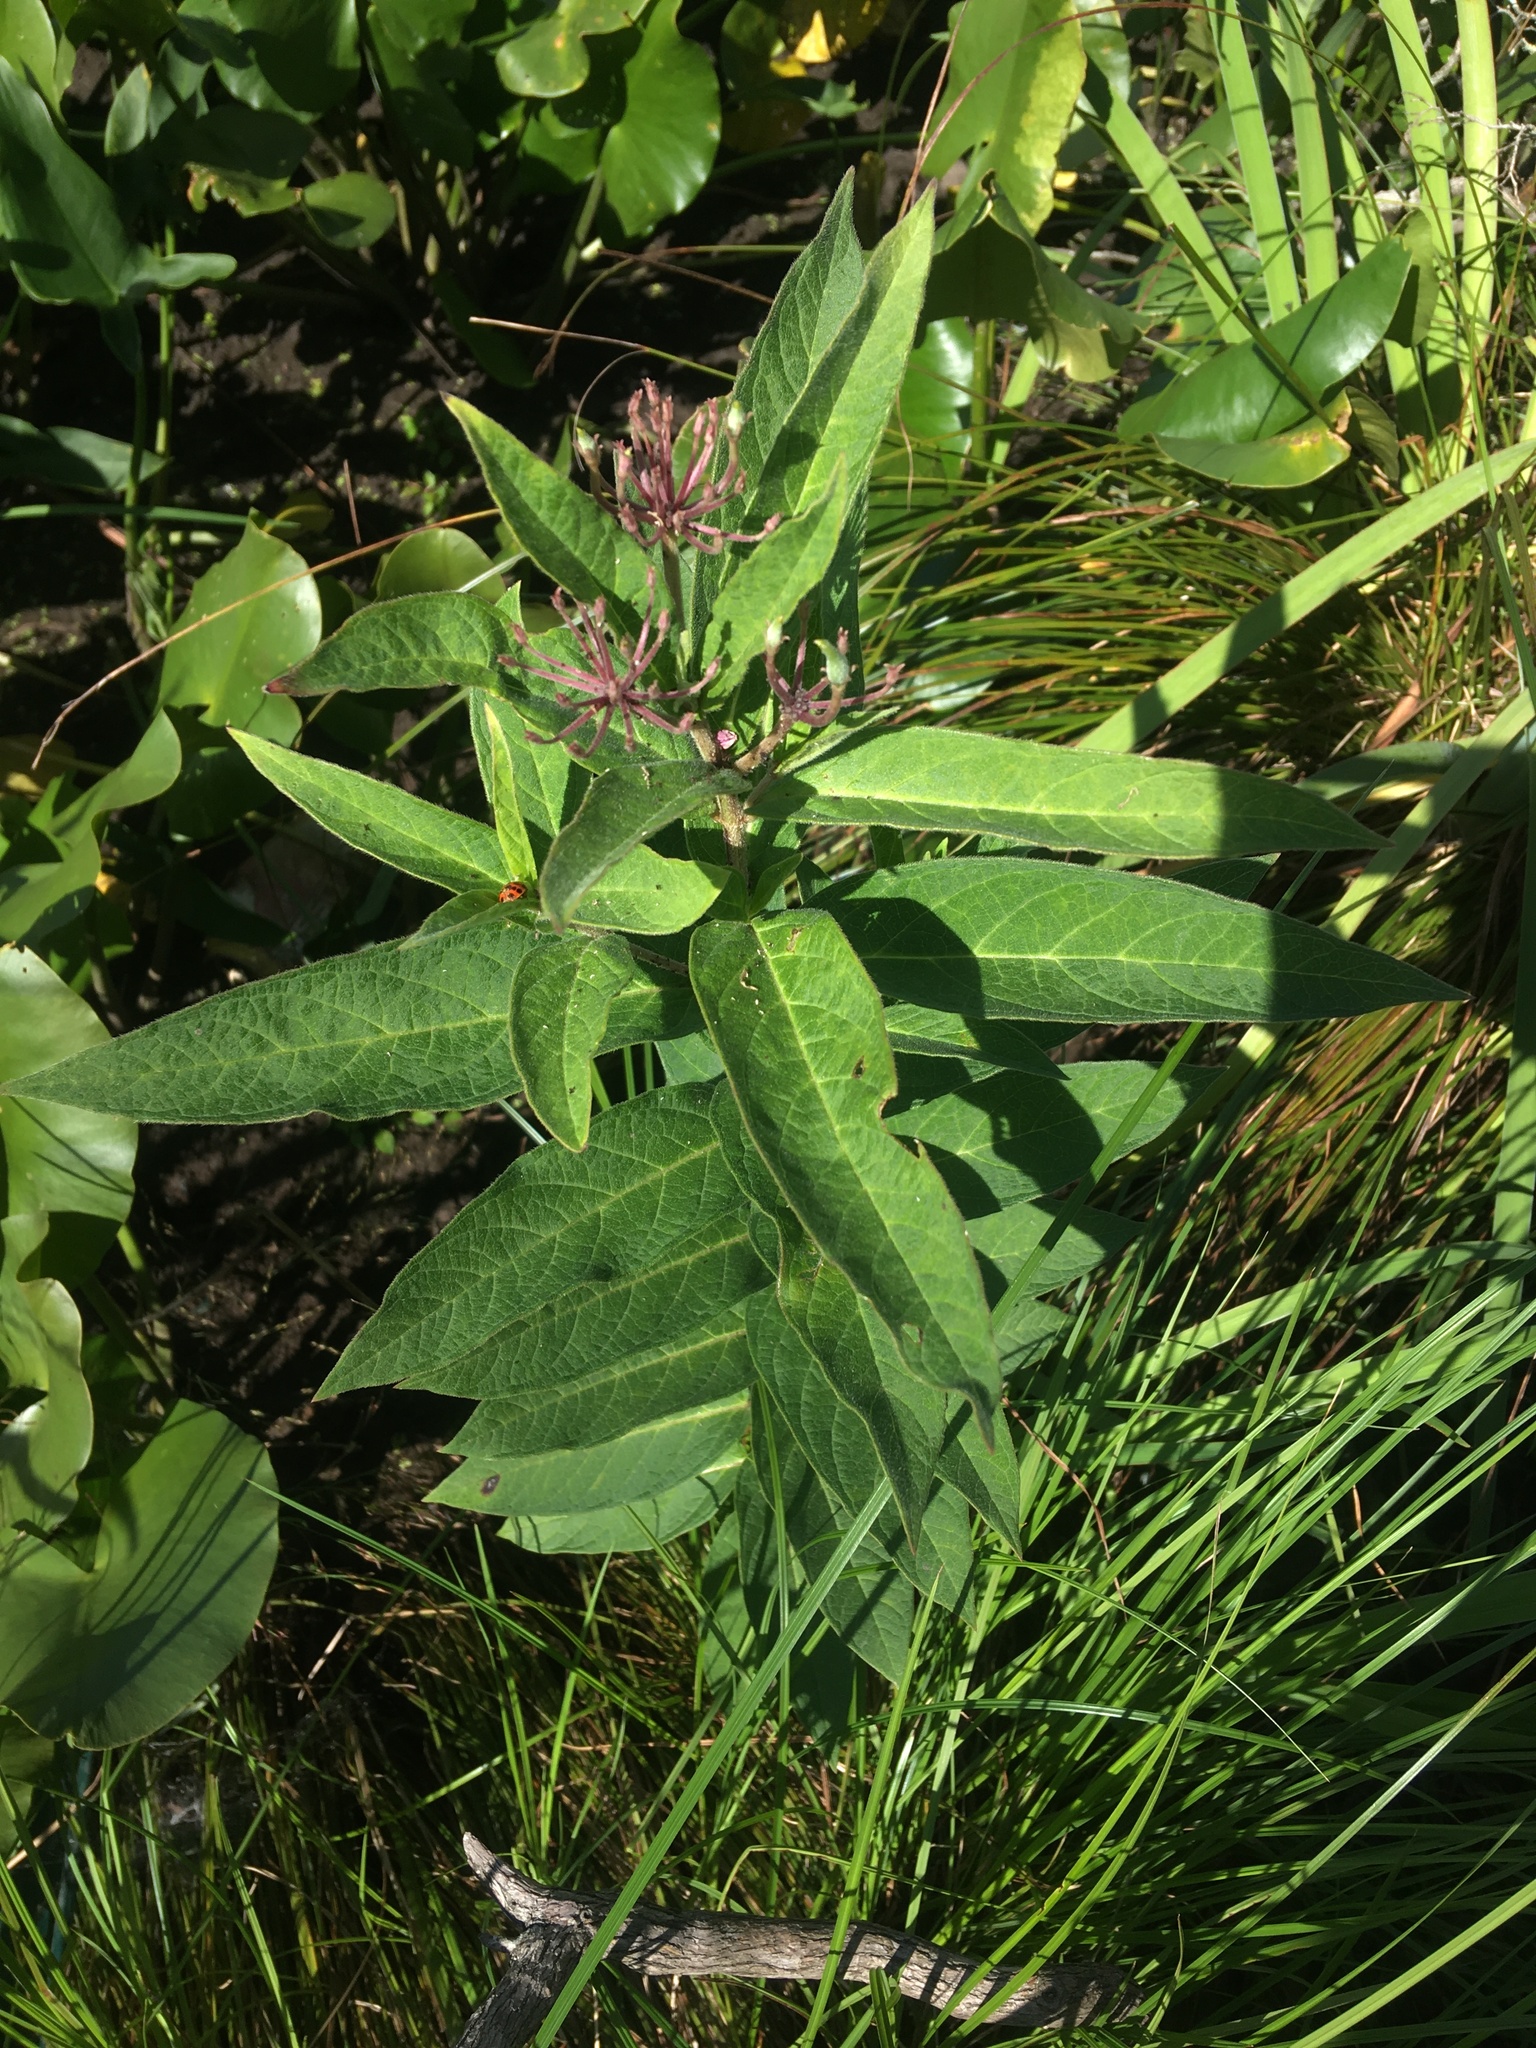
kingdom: Plantae
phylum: Tracheophyta
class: Magnoliopsida
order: Gentianales
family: Apocynaceae
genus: Asclepias
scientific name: Asclepias incarnata
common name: Swamp milkweed
